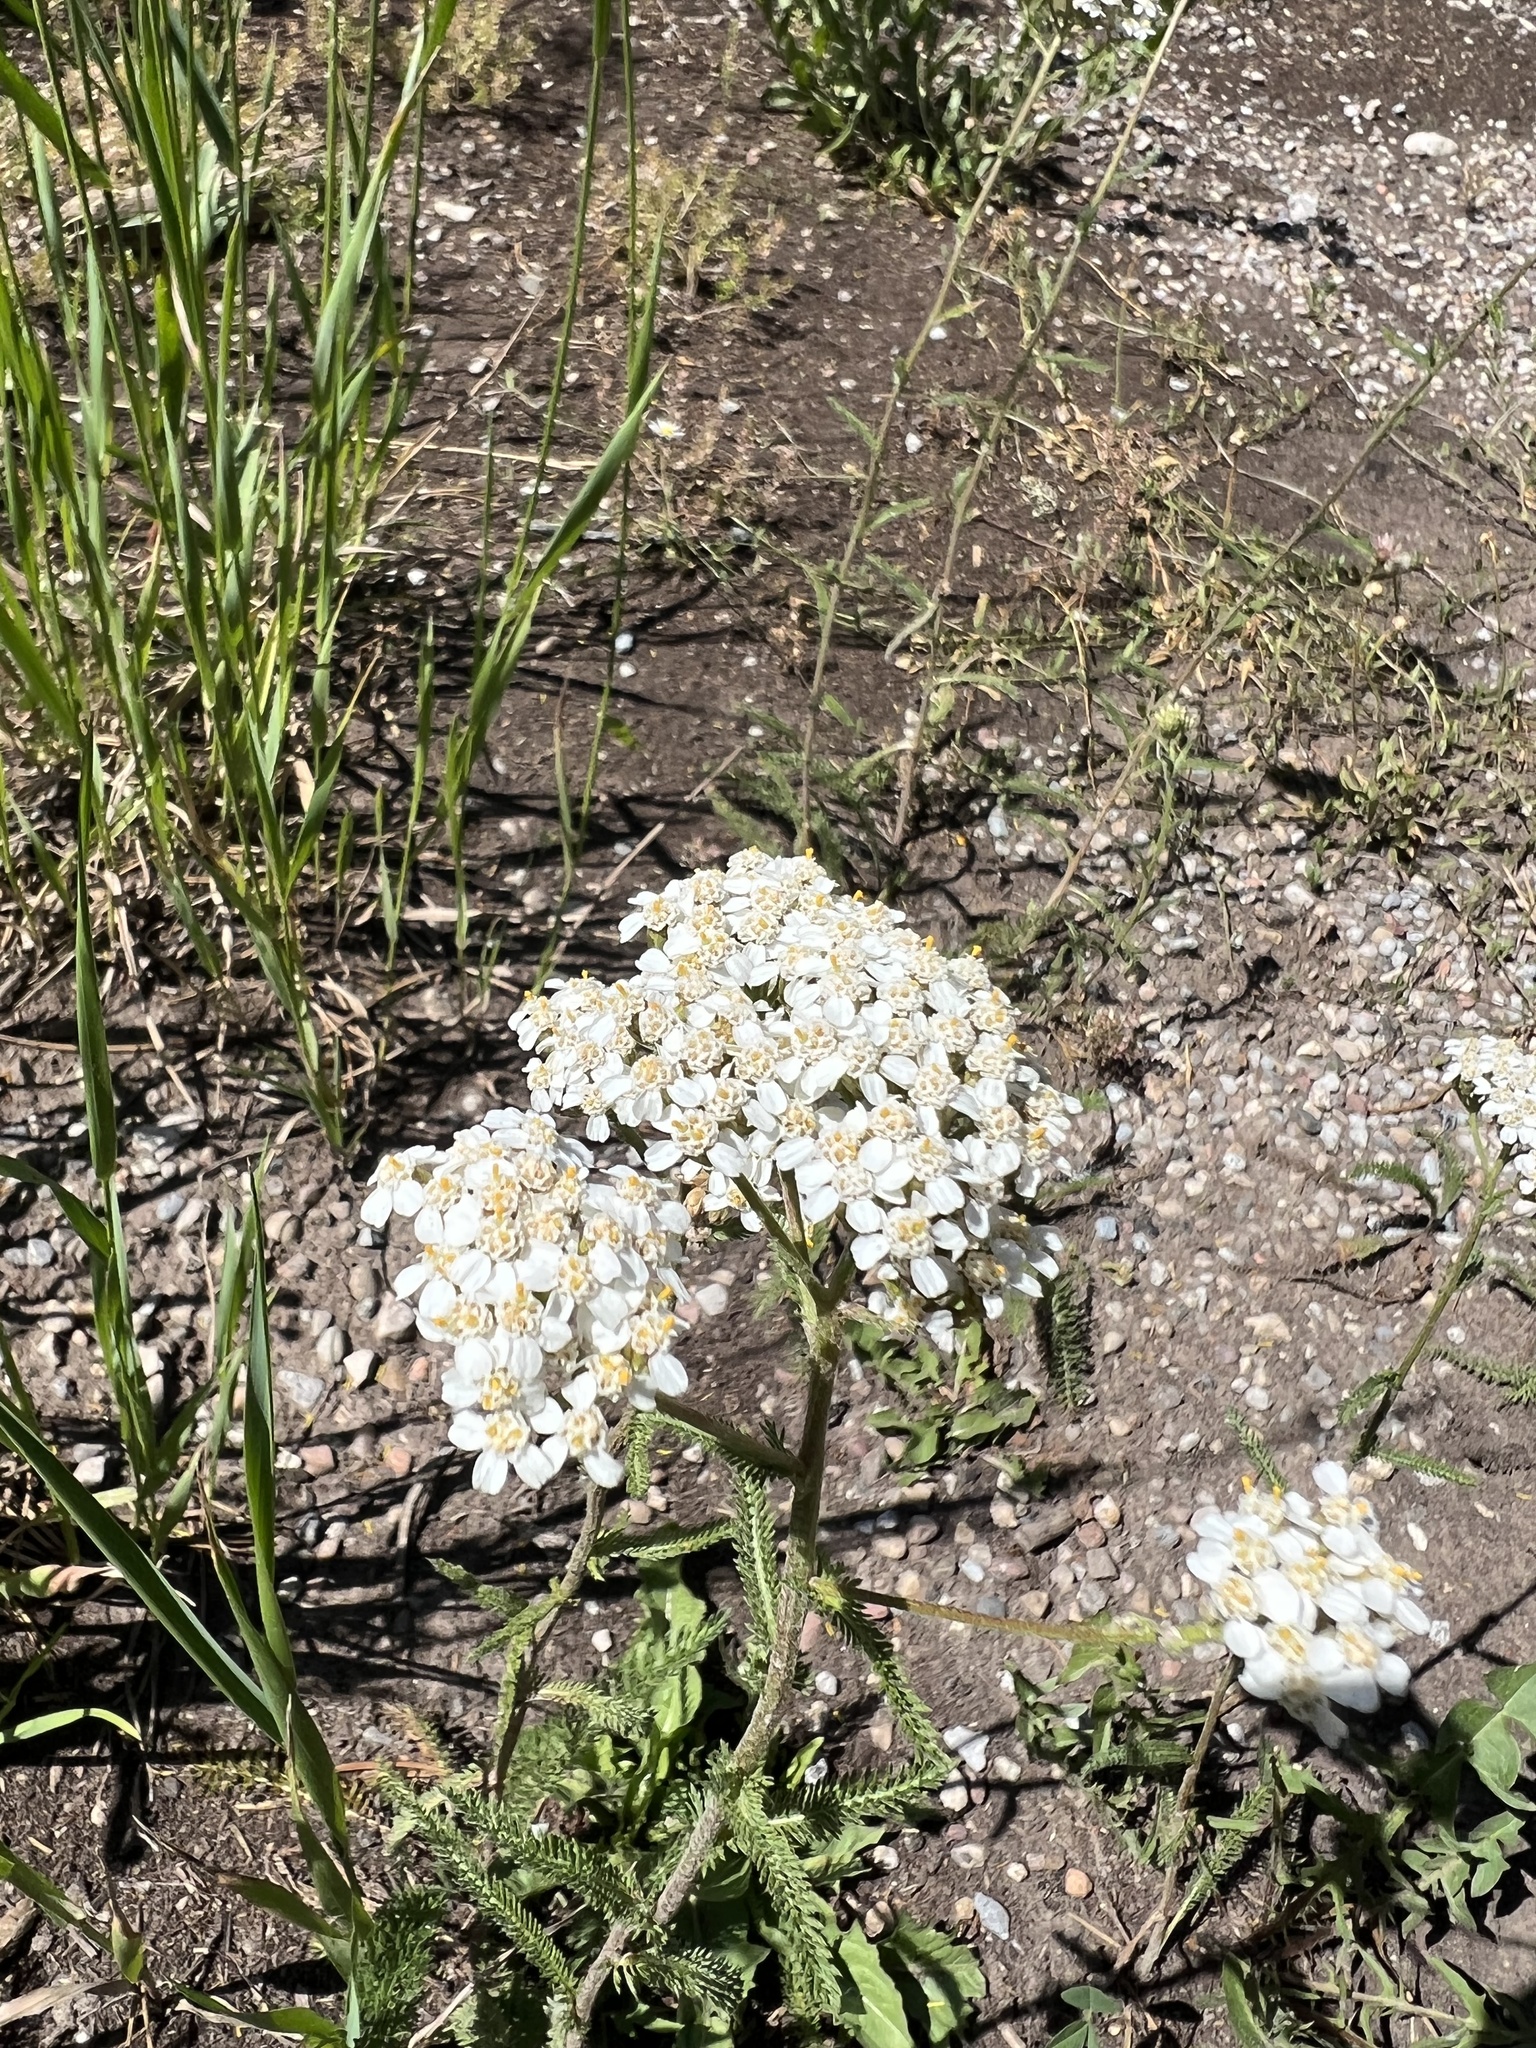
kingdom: Plantae
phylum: Tracheophyta
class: Magnoliopsida
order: Asterales
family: Asteraceae
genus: Achillea
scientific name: Achillea millefolium
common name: Yarrow
